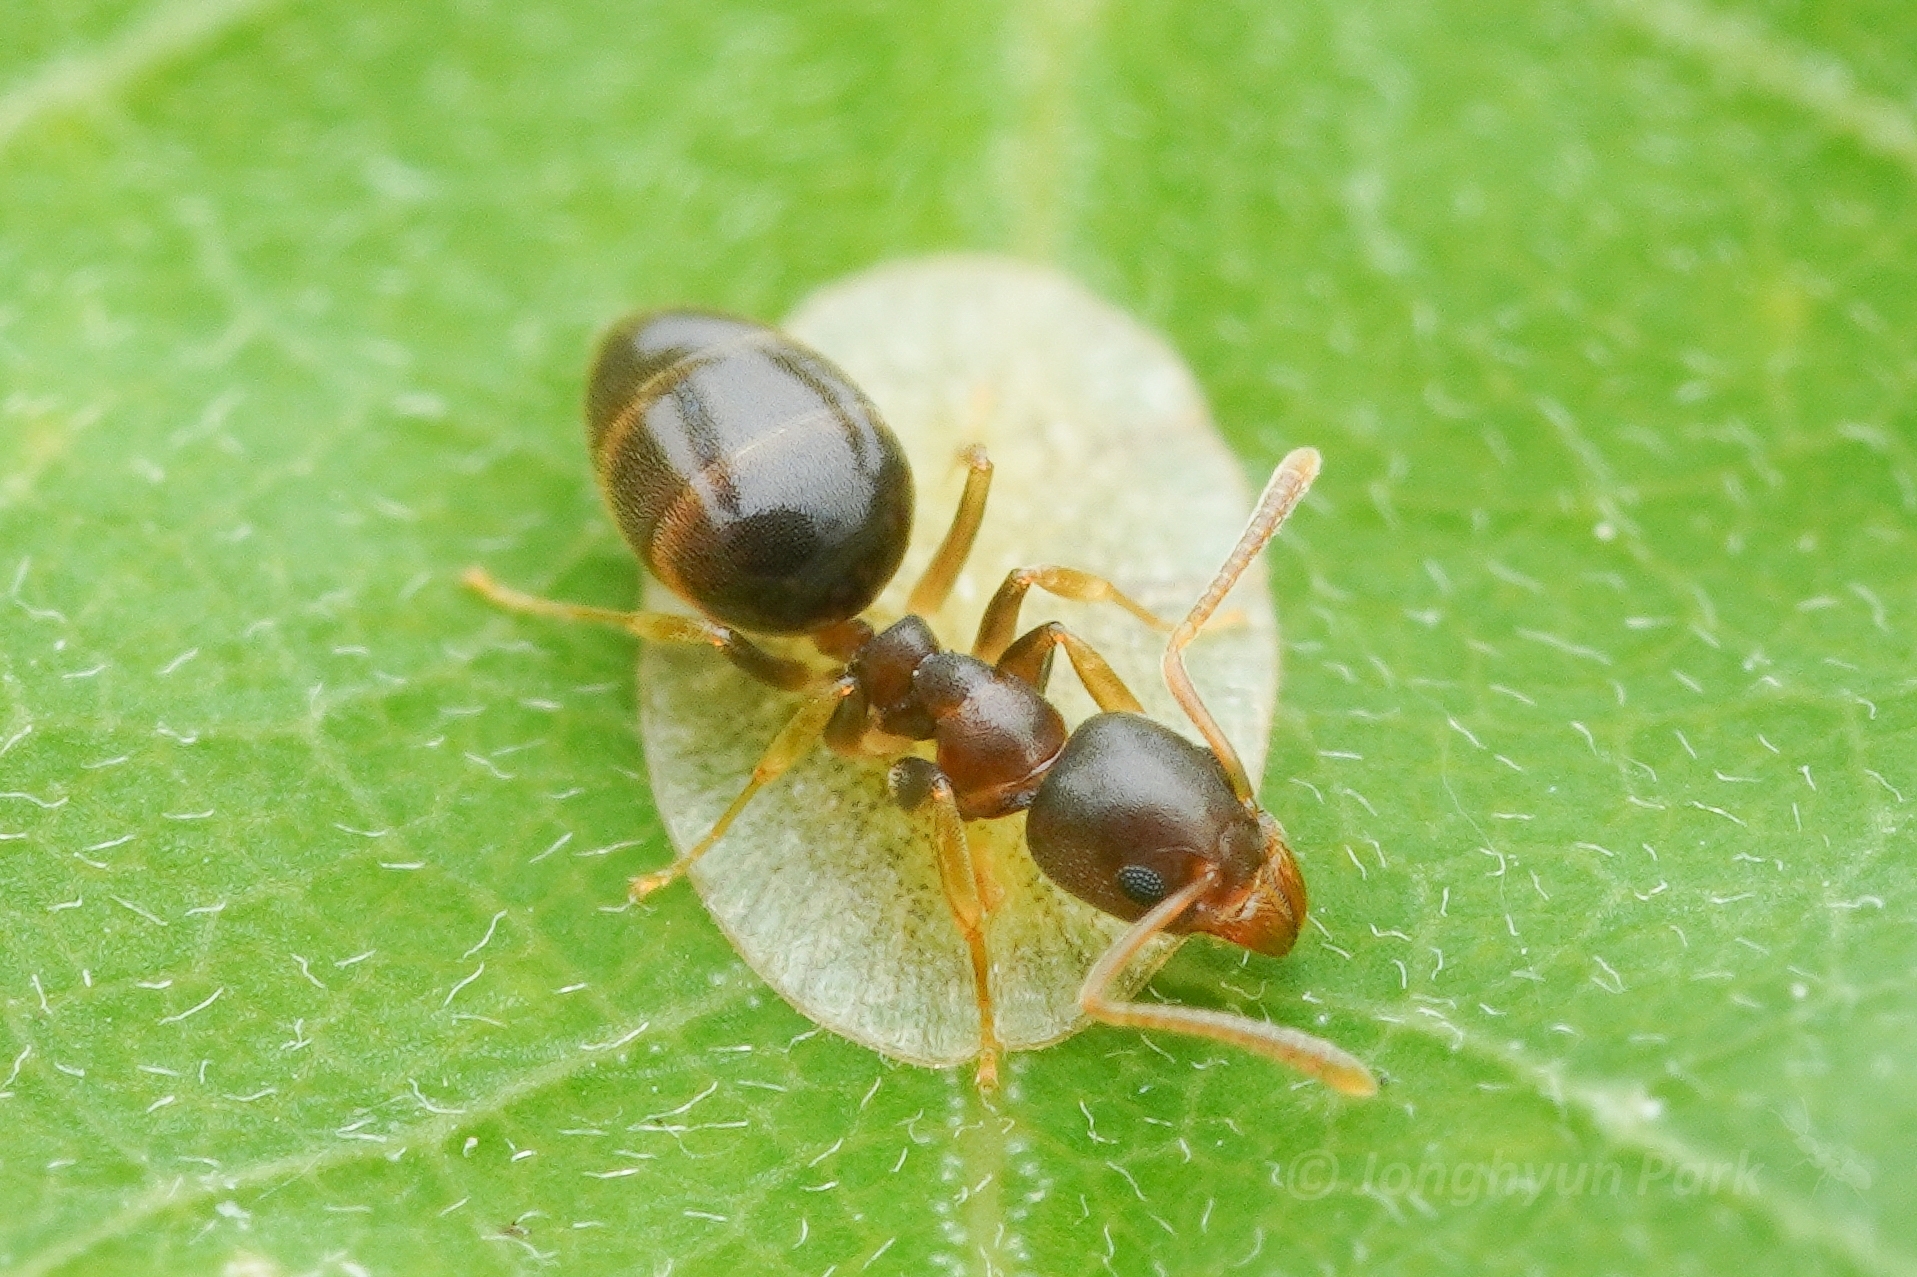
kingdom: Animalia
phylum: Arthropoda
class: Insecta
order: Hymenoptera
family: Formicidae
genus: Technomyrmex
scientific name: Technomyrmex gibbosus
